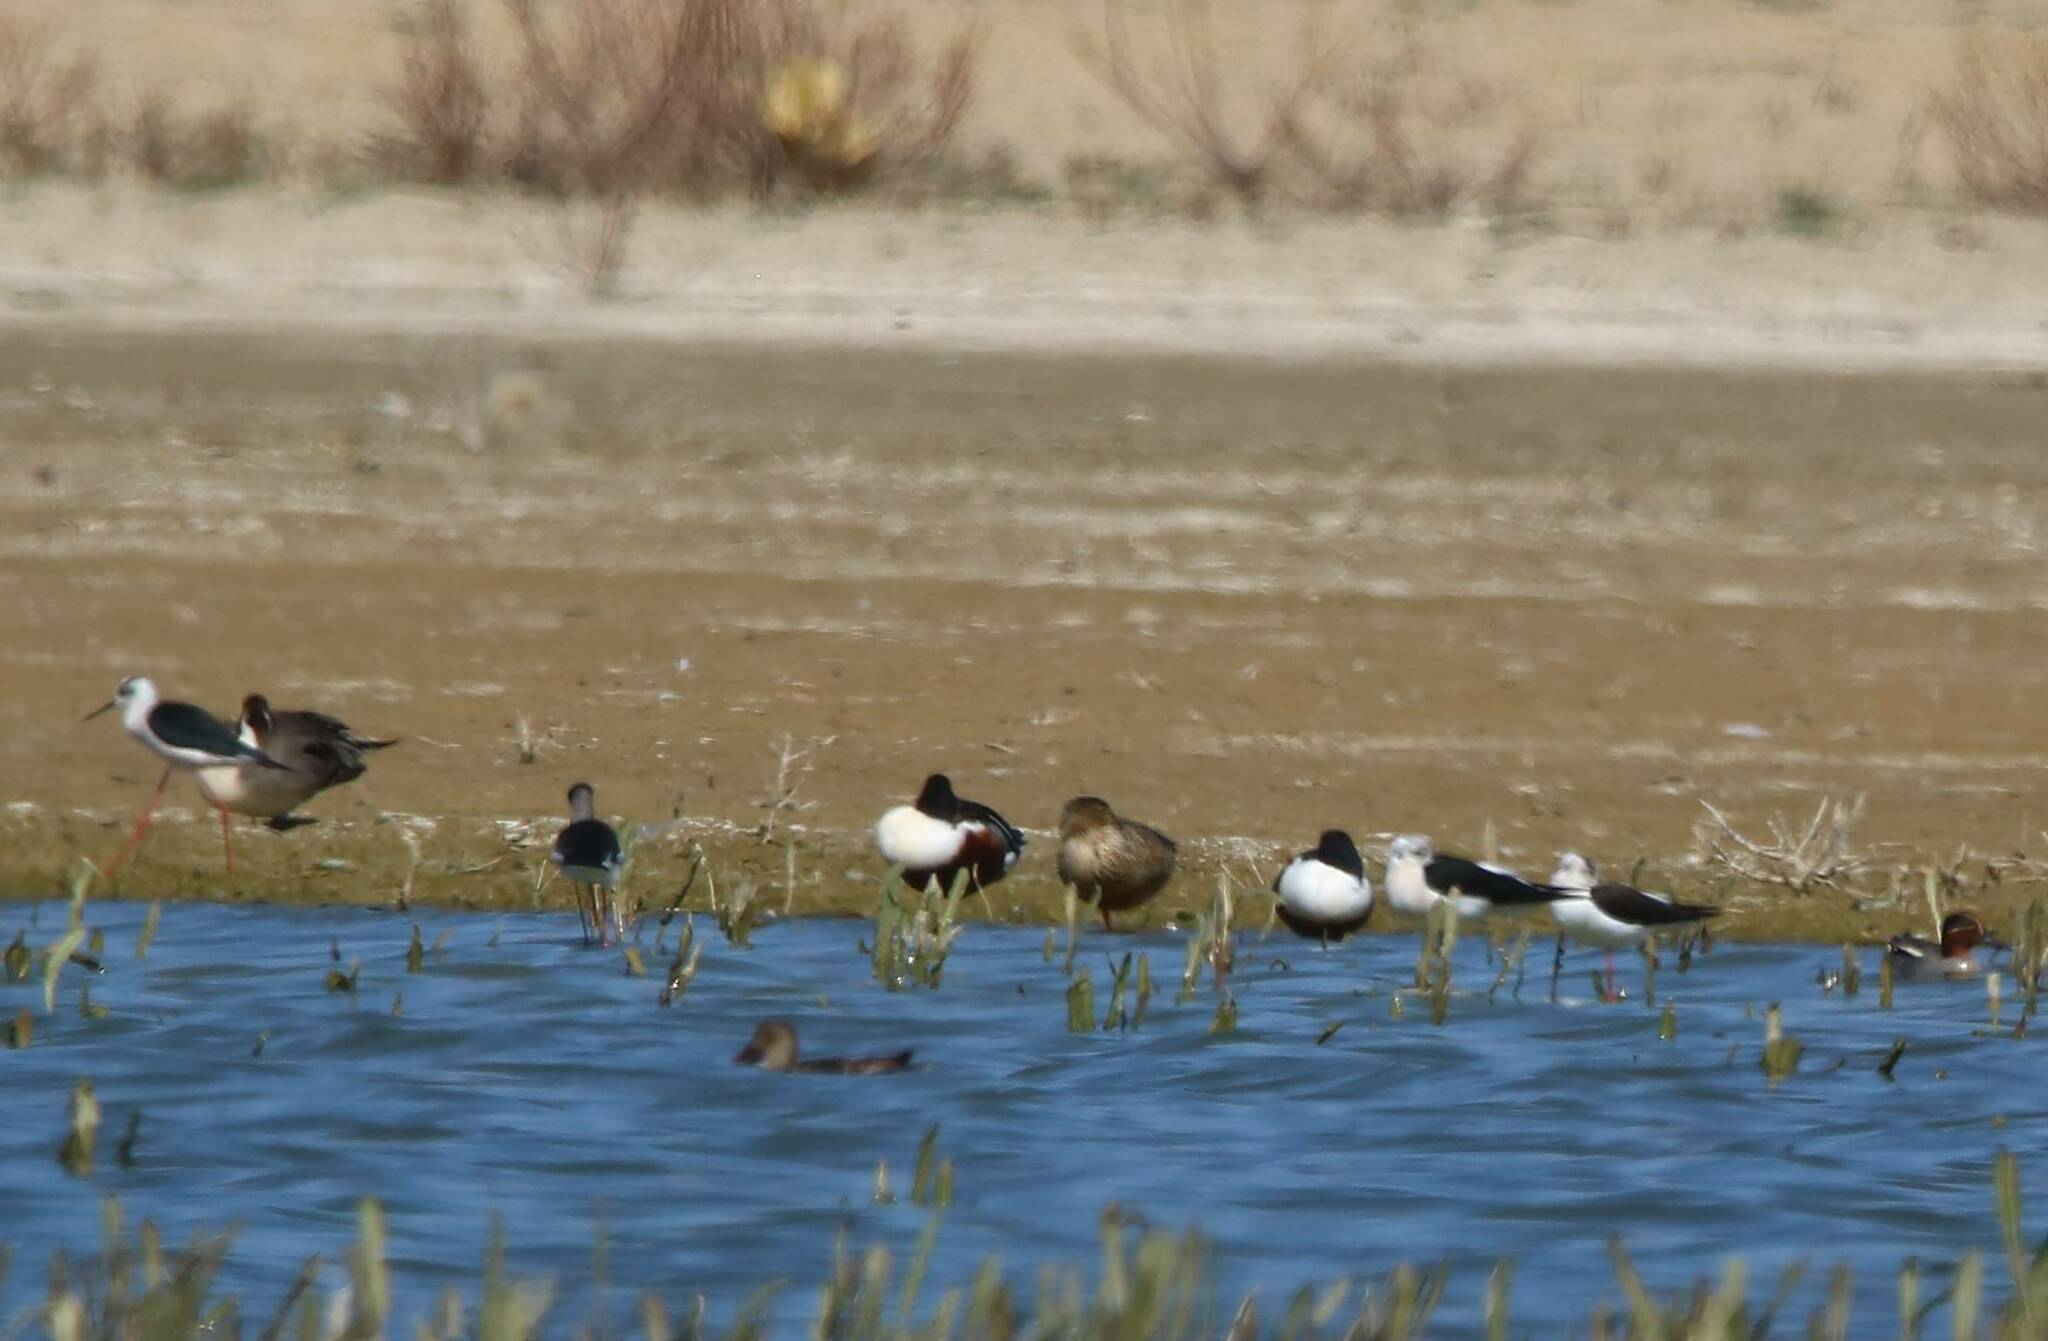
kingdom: Animalia
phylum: Chordata
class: Aves
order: Anseriformes
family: Anatidae
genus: Spatula
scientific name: Spatula clypeata
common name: Northern shoveler
